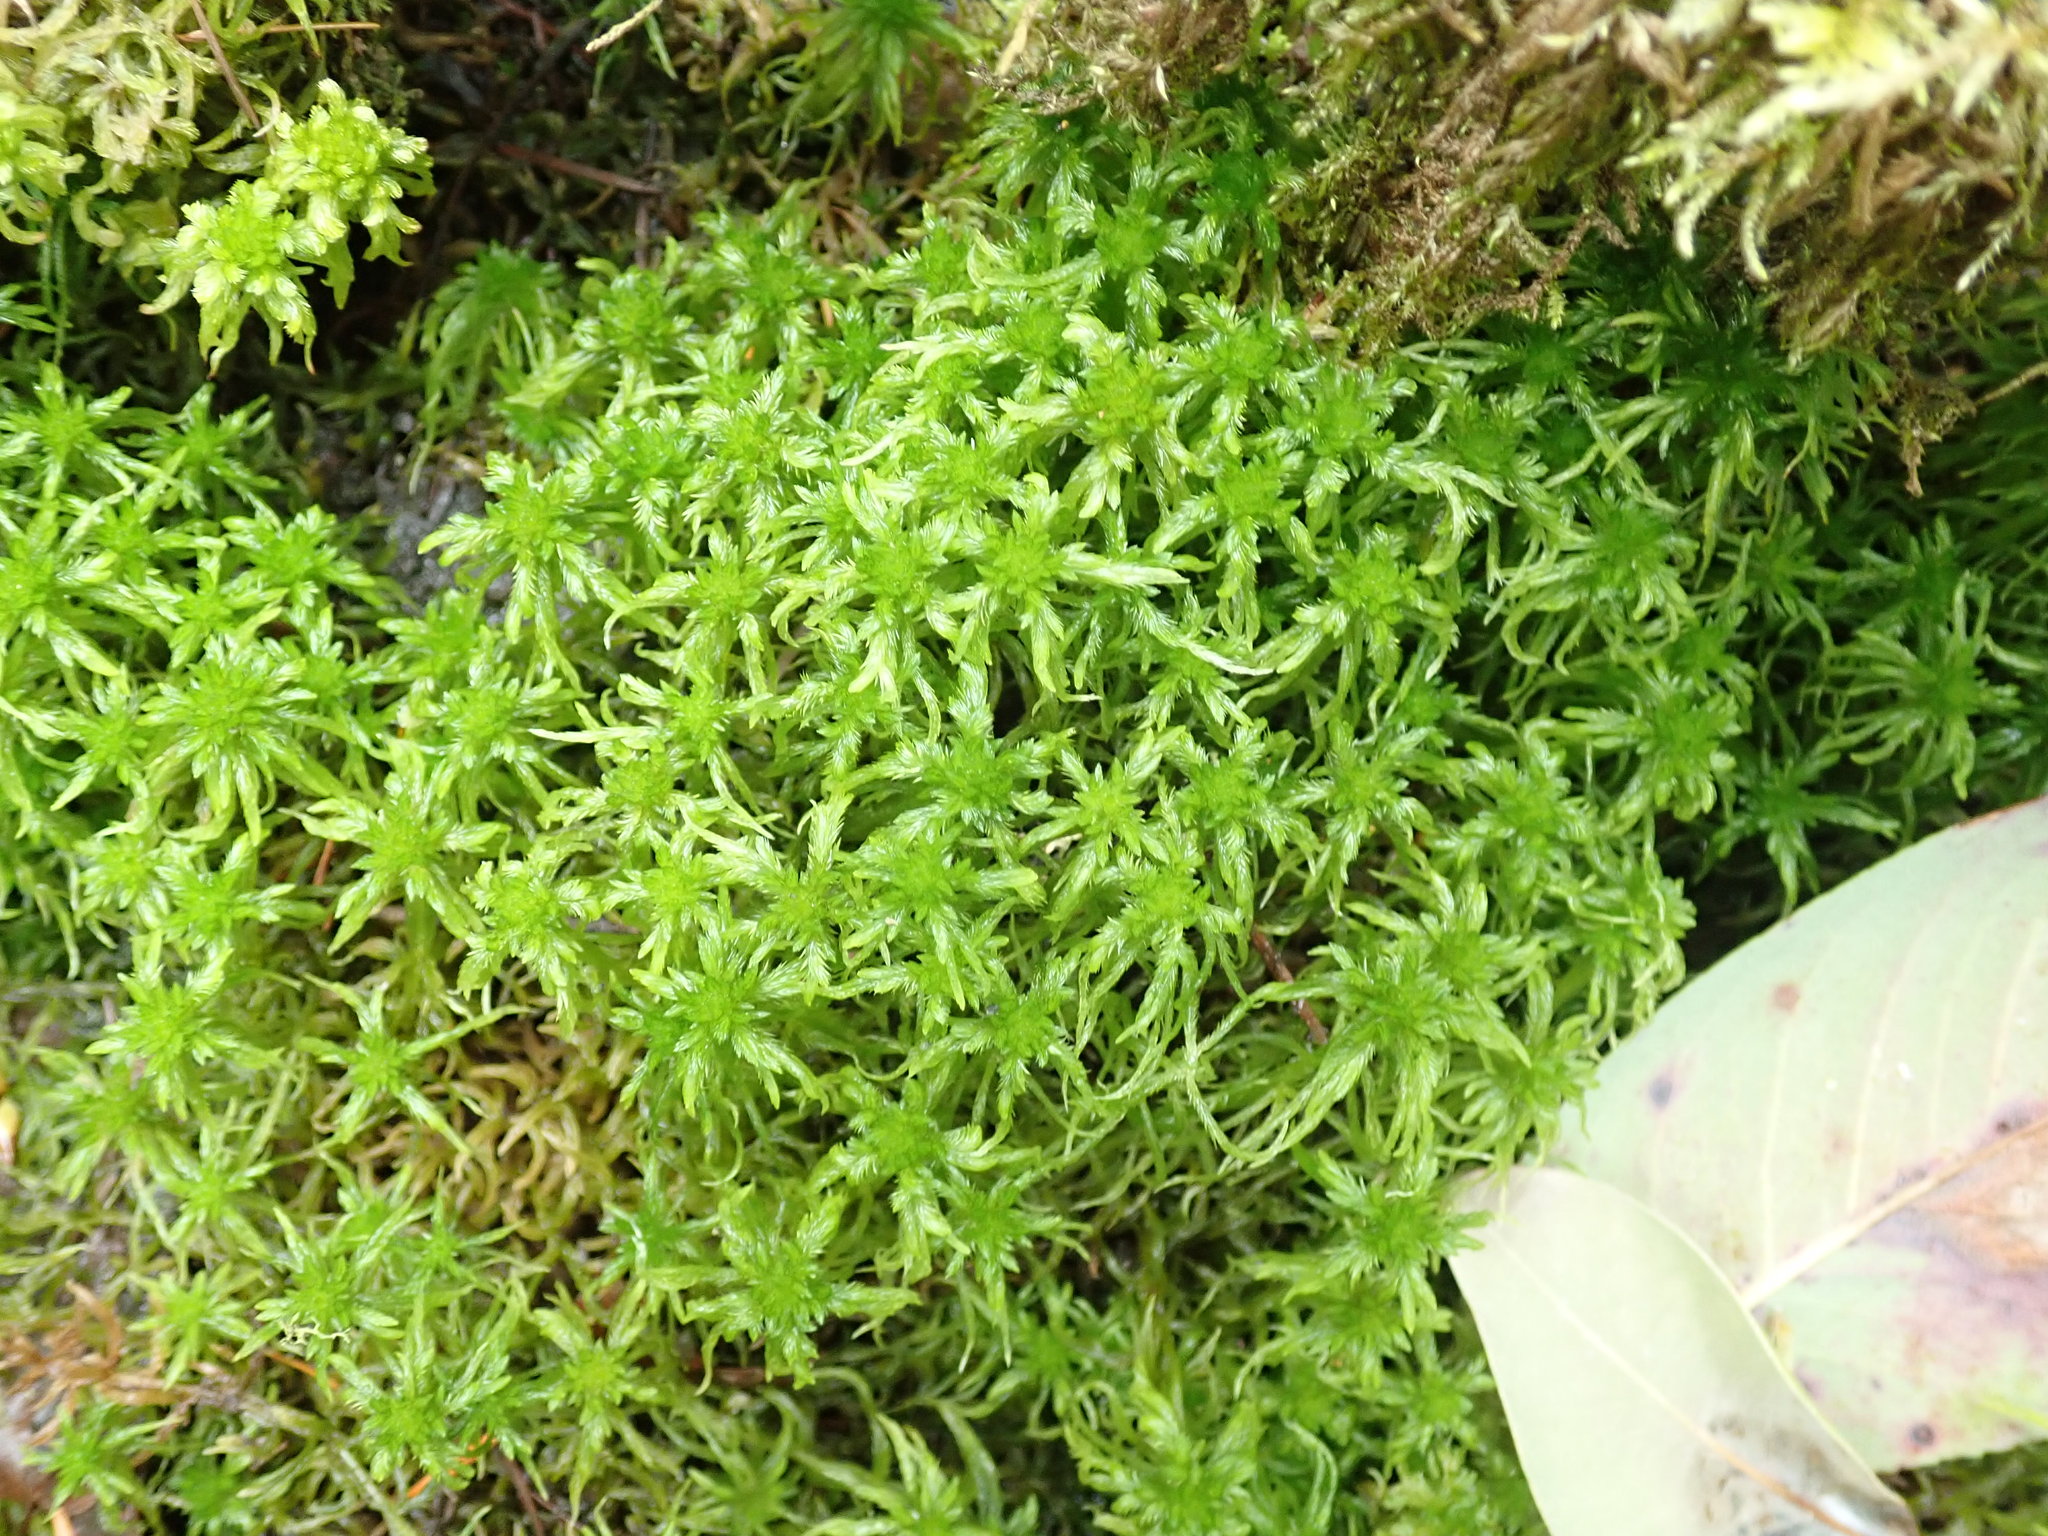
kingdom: Plantae
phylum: Bryophyta
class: Sphagnopsida
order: Sphagnales
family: Sphagnaceae
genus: Sphagnum
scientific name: Sphagnum girgensohnii
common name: Girgensohn's peat moss
